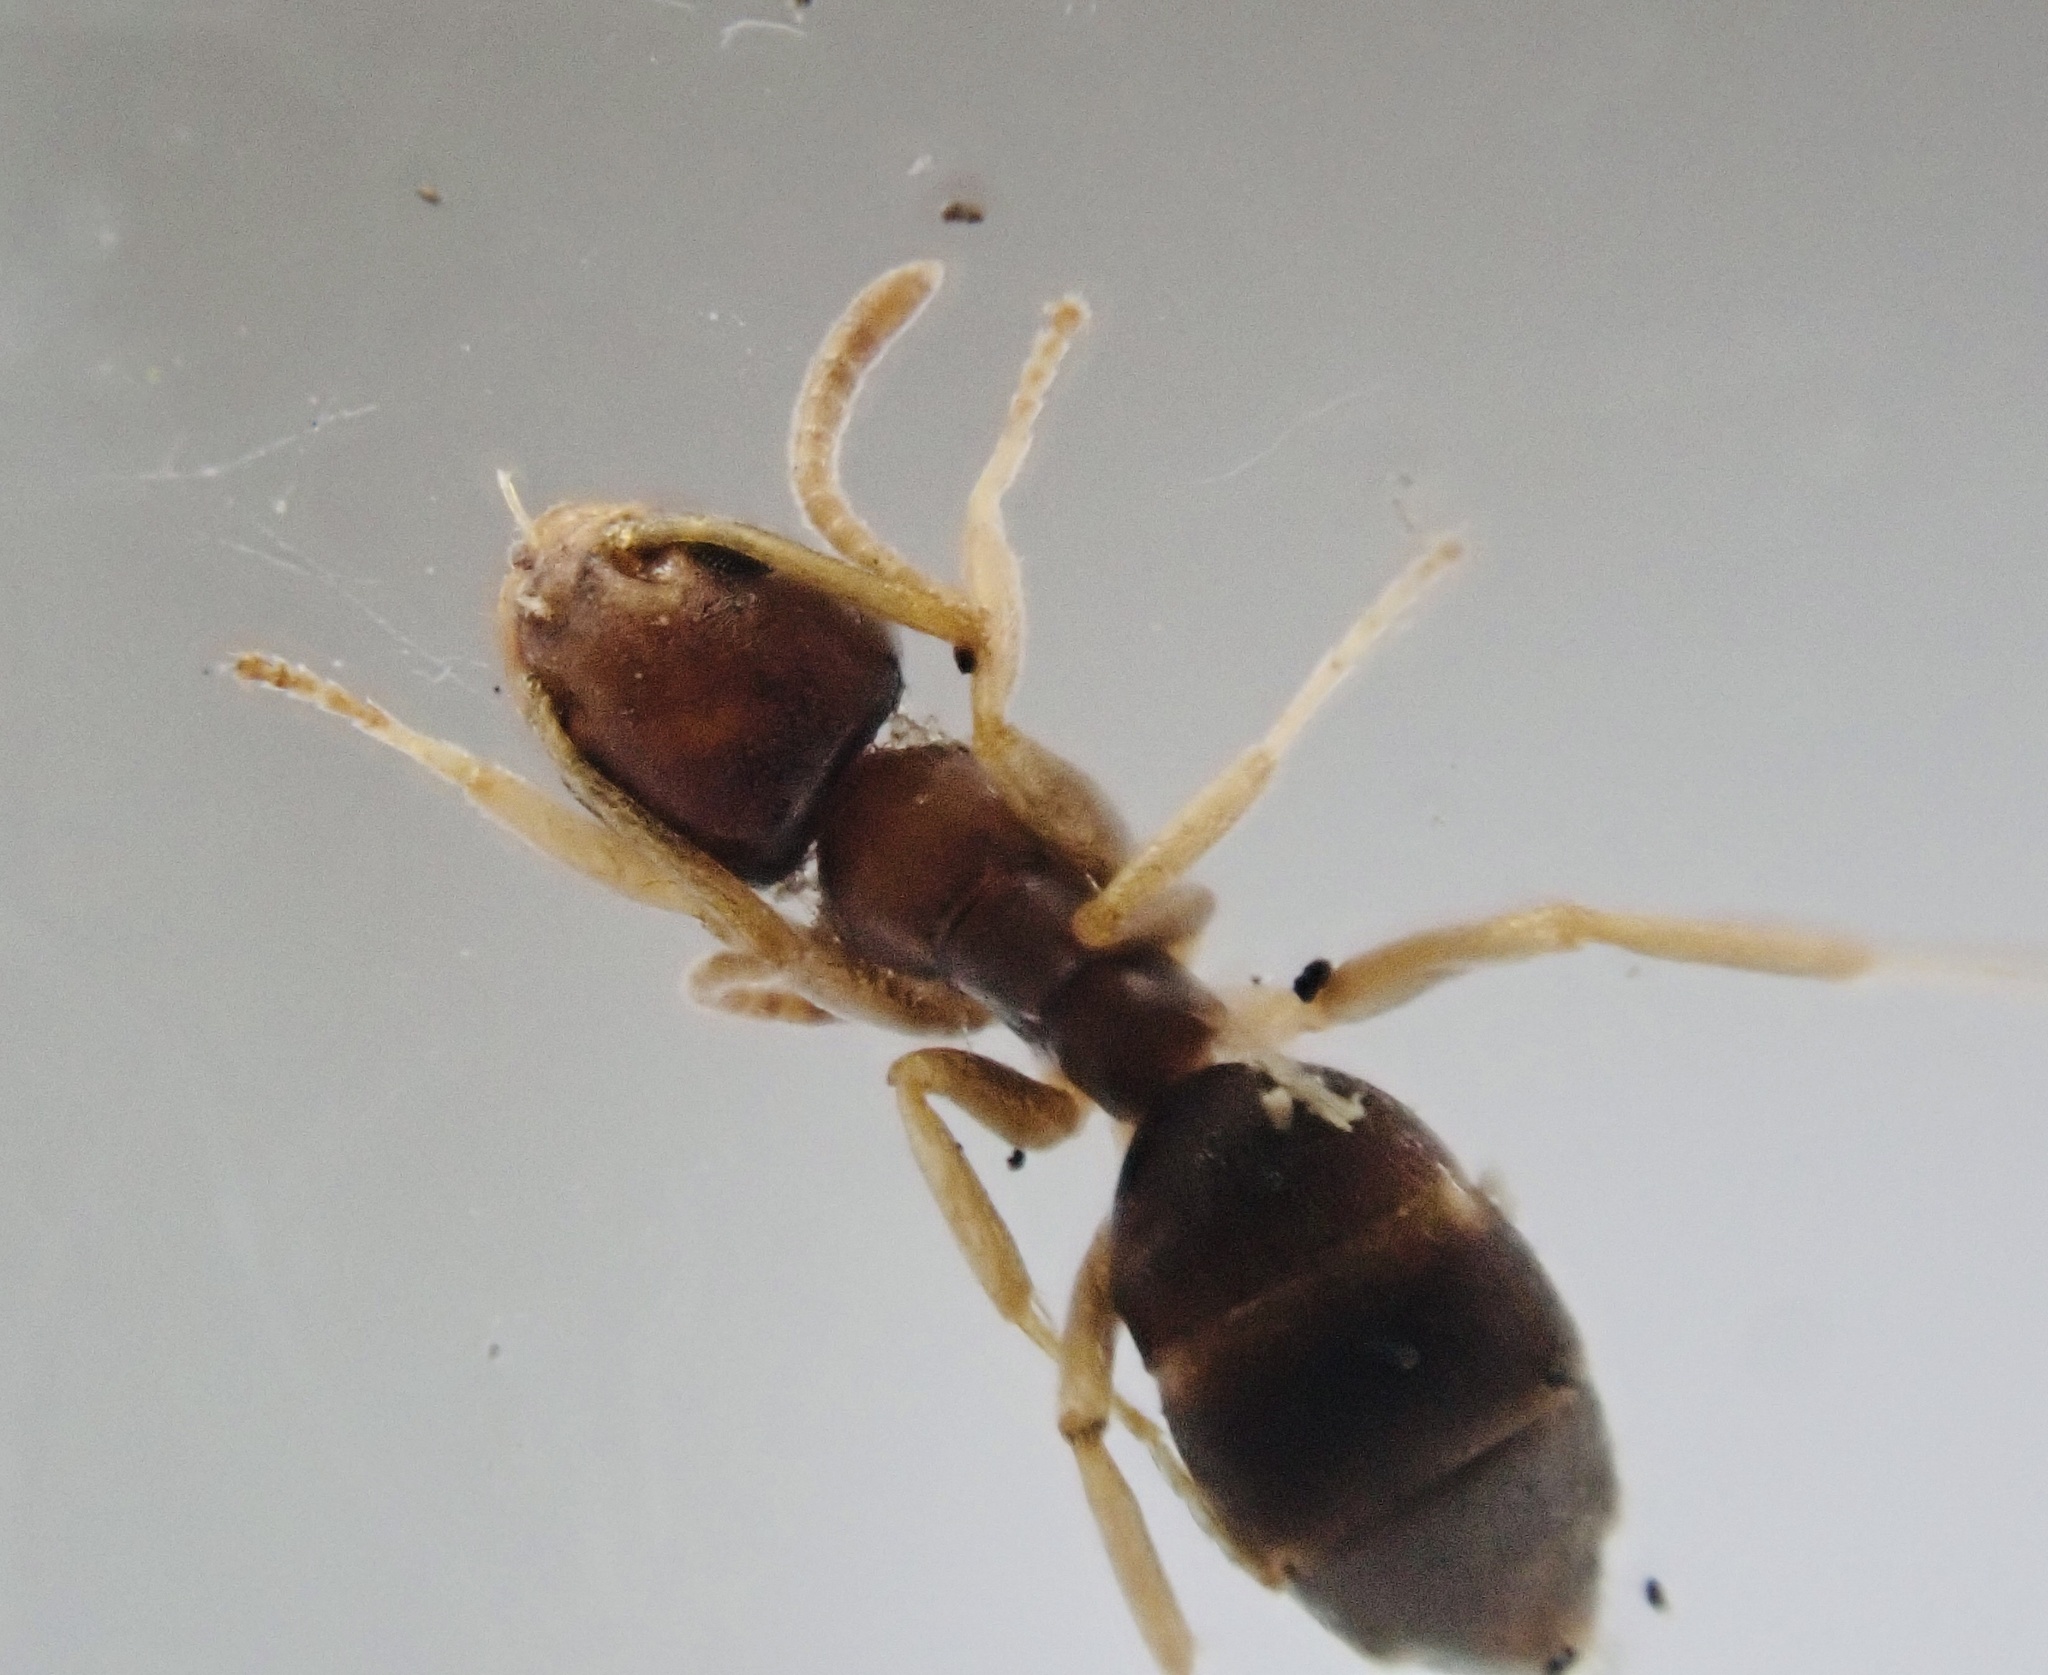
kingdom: Animalia
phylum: Arthropoda
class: Insecta
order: Hymenoptera
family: Formicidae
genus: Tapinoma
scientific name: Tapinoma sessile
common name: Odorous house ant
